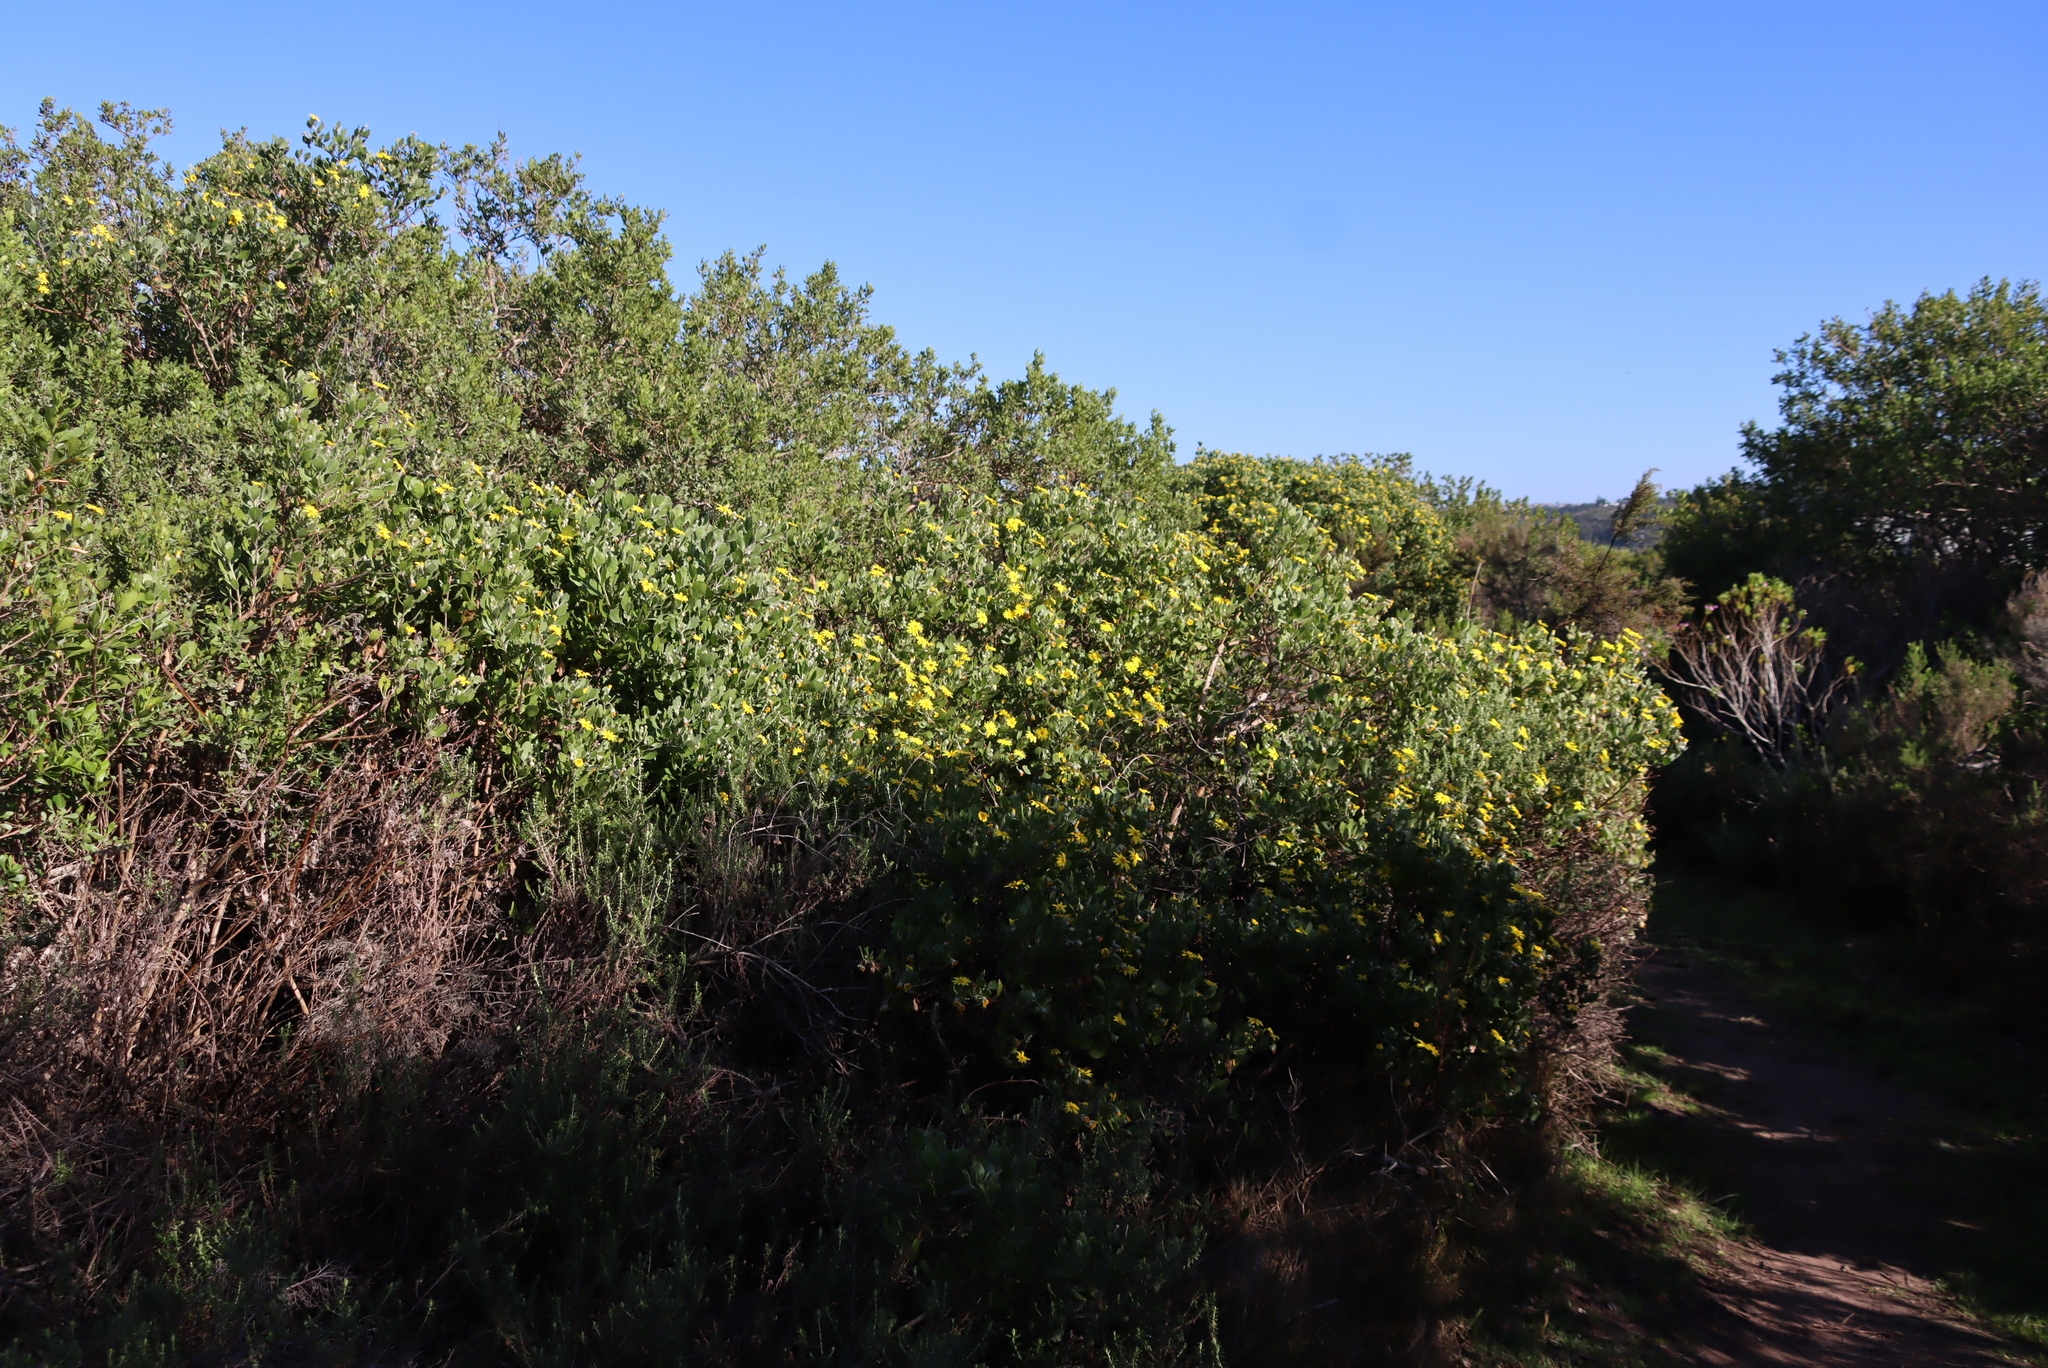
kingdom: Plantae
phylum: Tracheophyta
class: Magnoliopsida
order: Asterales
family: Asteraceae
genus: Osteospermum
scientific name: Osteospermum moniliferum
